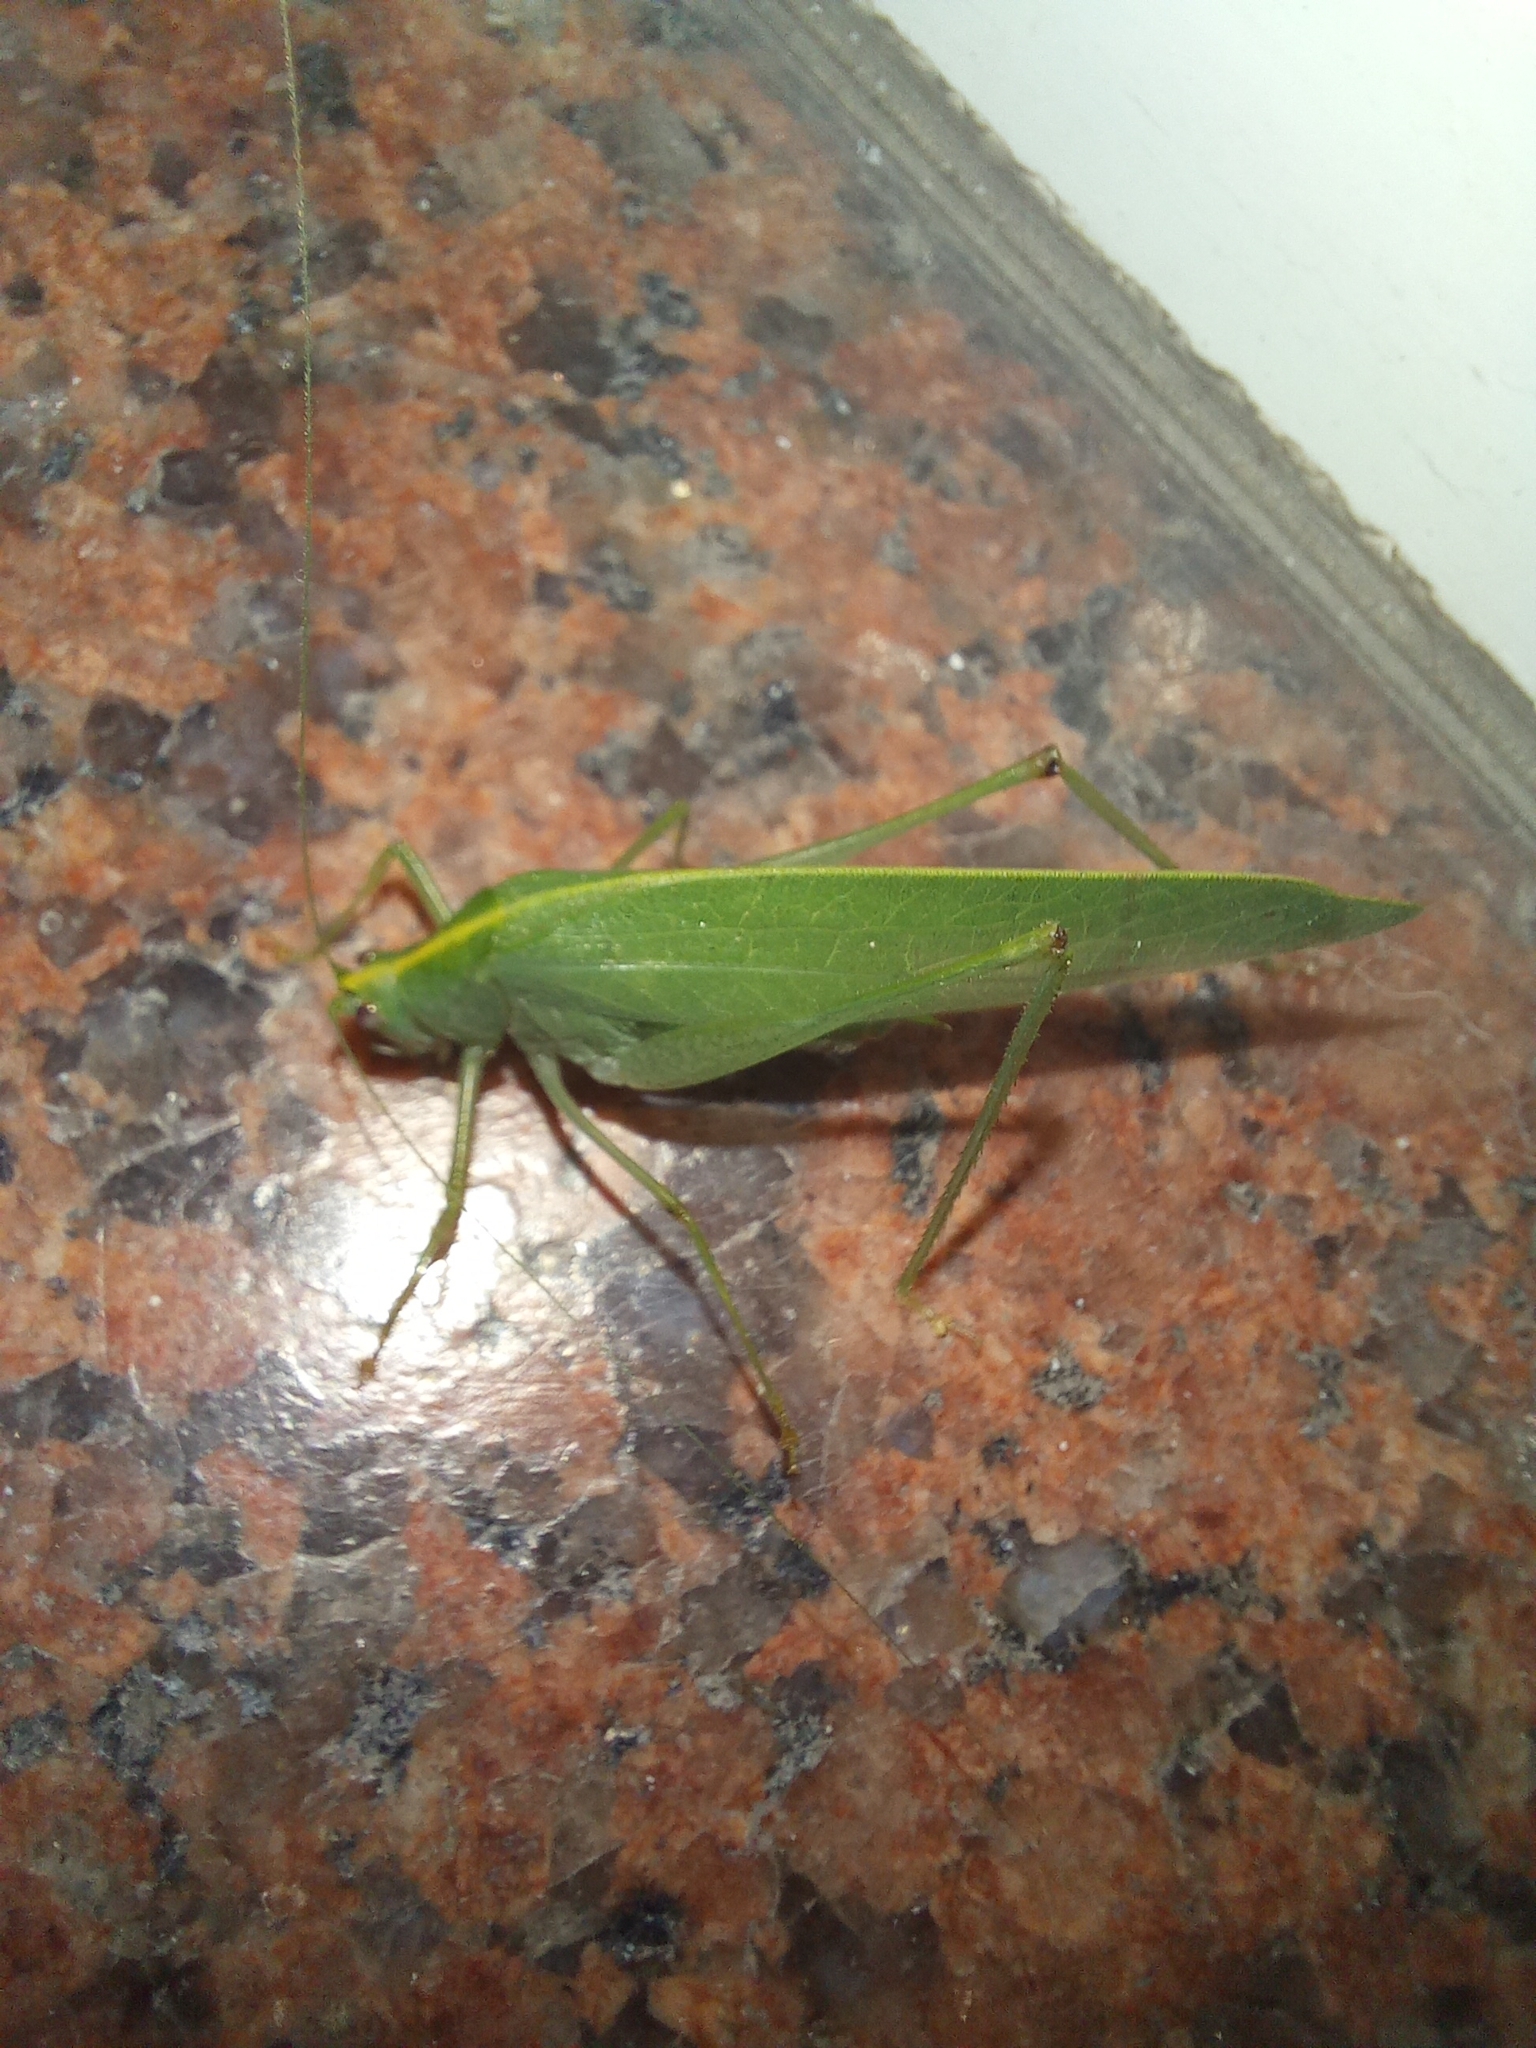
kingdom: Animalia
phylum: Arthropoda
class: Insecta
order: Orthoptera
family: Tettigoniidae
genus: Grammadera
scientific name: Grammadera clara
